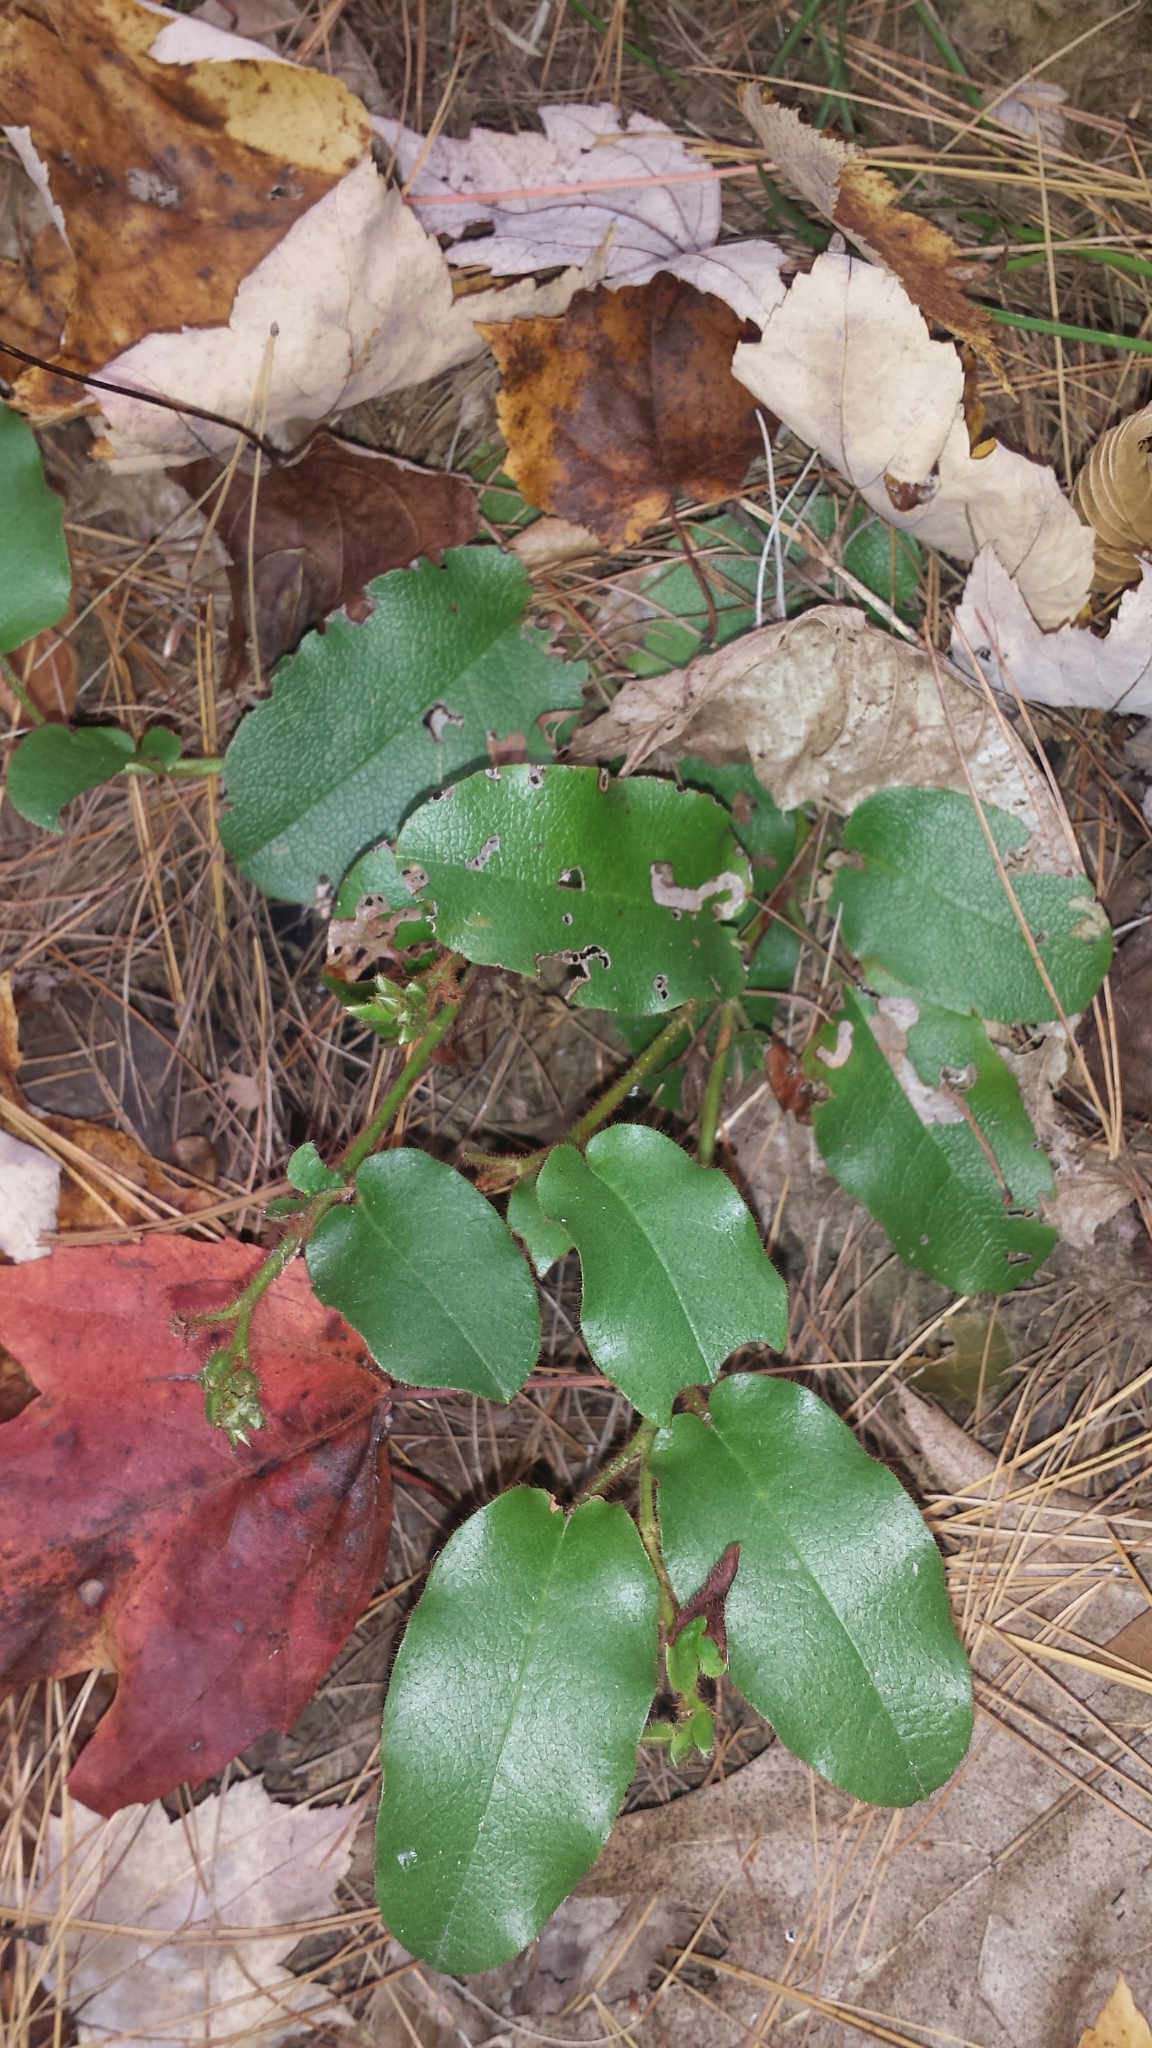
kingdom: Plantae
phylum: Tracheophyta
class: Magnoliopsida
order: Ericales
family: Ericaceae
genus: Epigaea
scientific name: Epigaea repens
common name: Gravelroot
